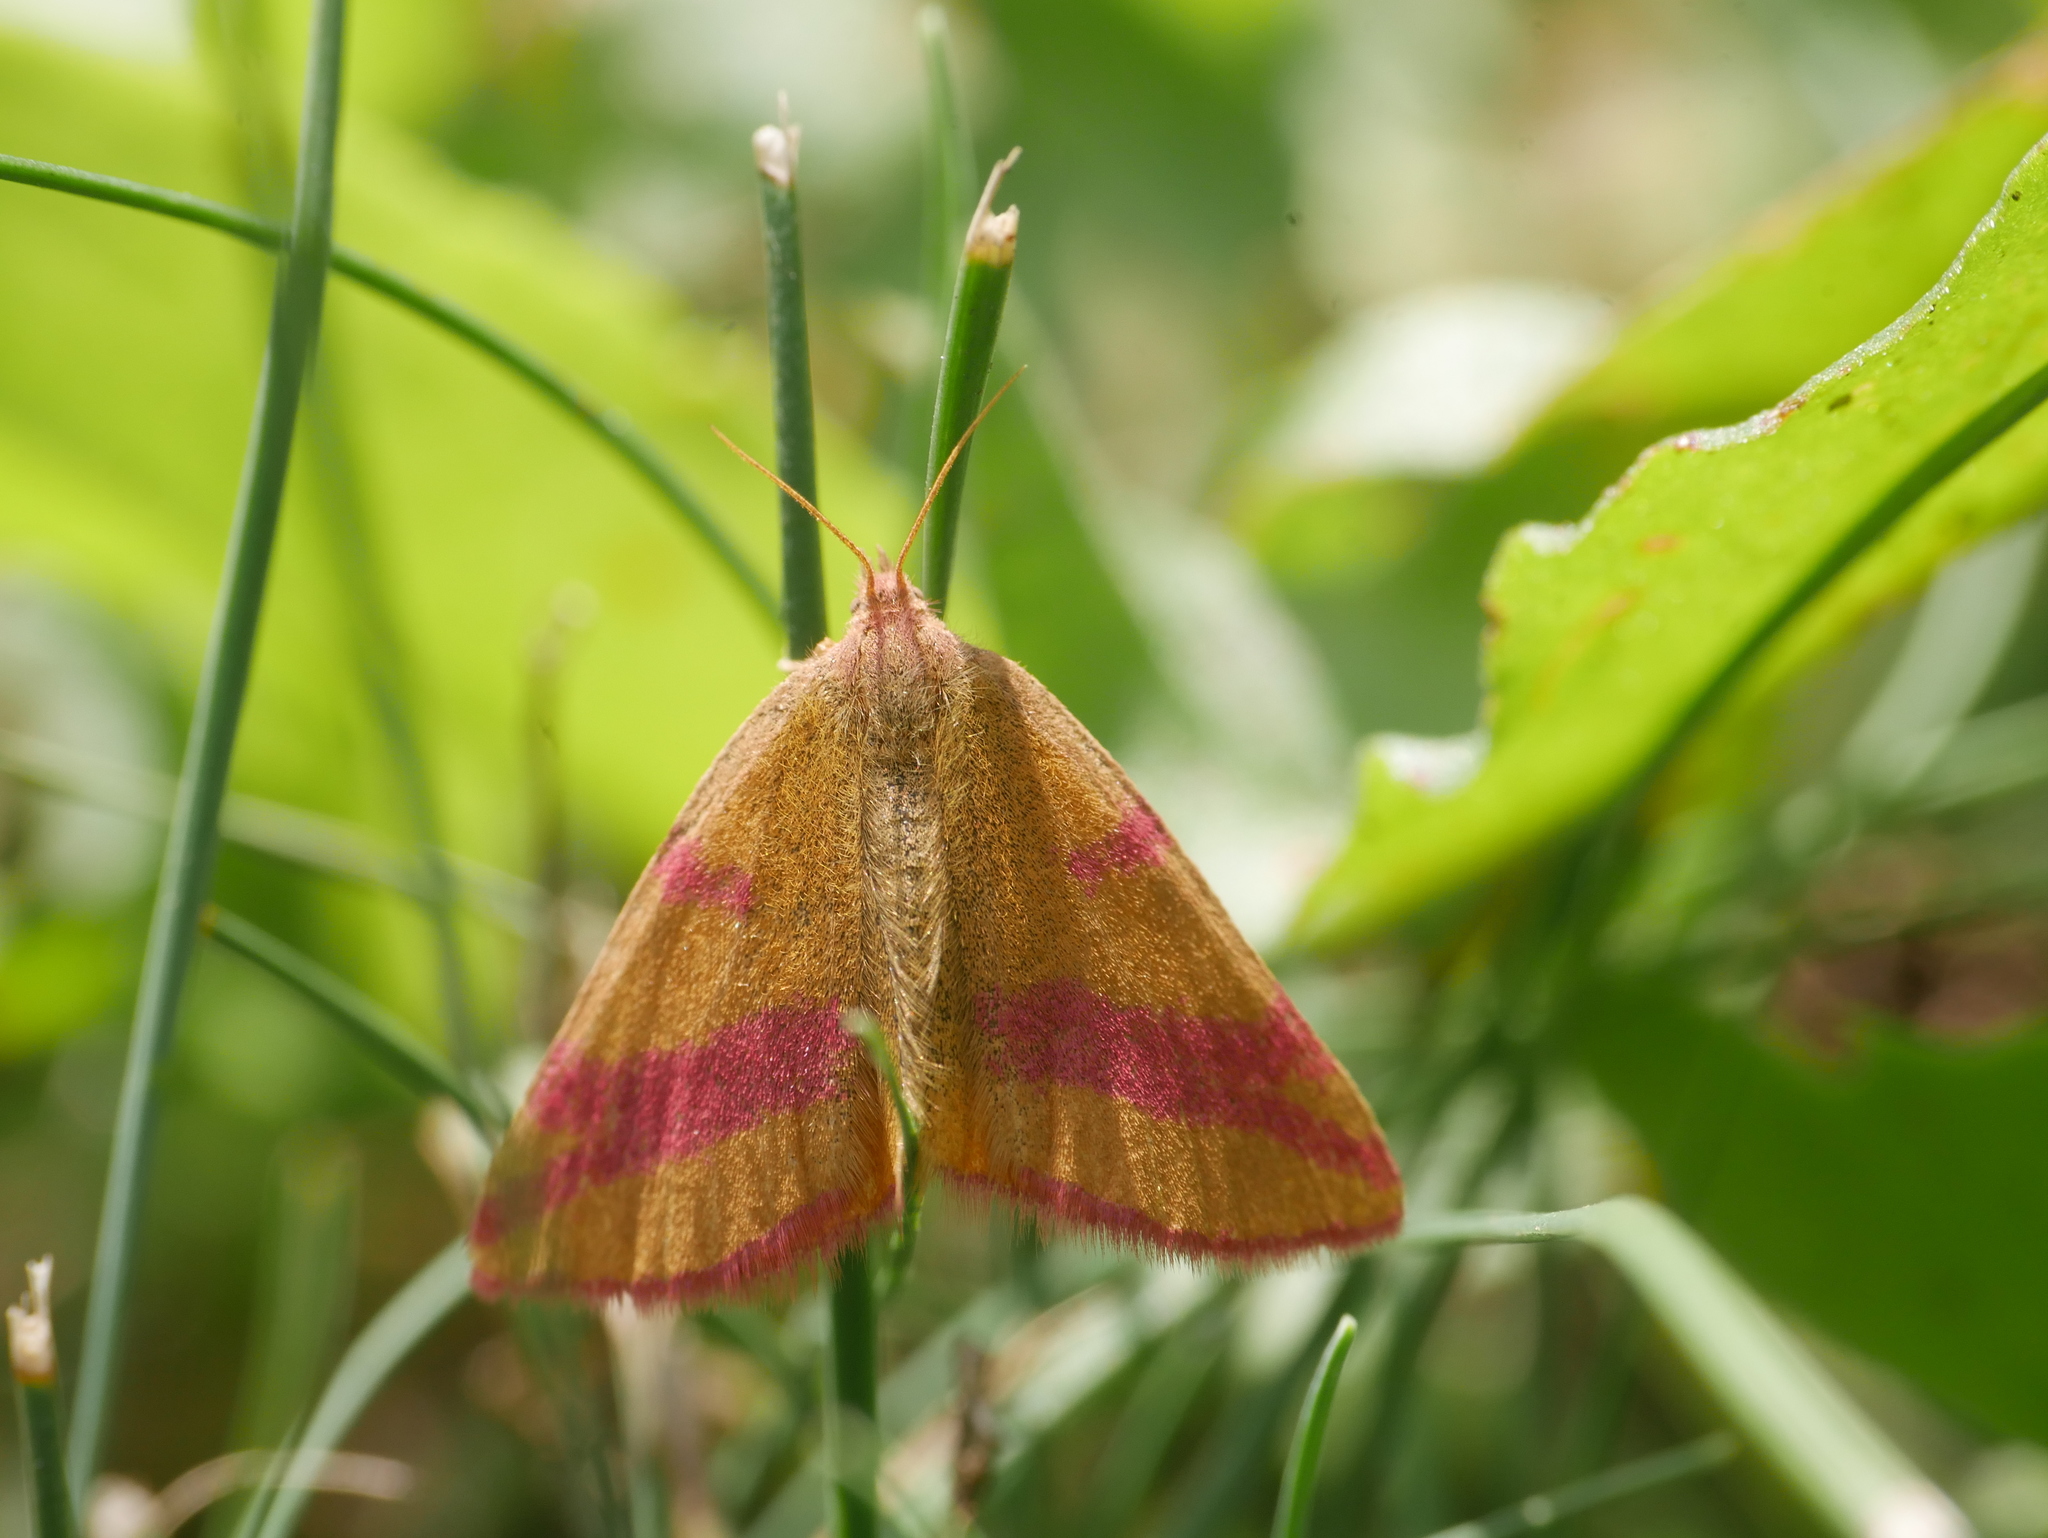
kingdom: Animalia
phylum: Arthropoda
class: Insecta
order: Lepidoptera
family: Geometridae
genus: Lythria
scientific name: Lythria cruentaria
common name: Purple-barred yellow
